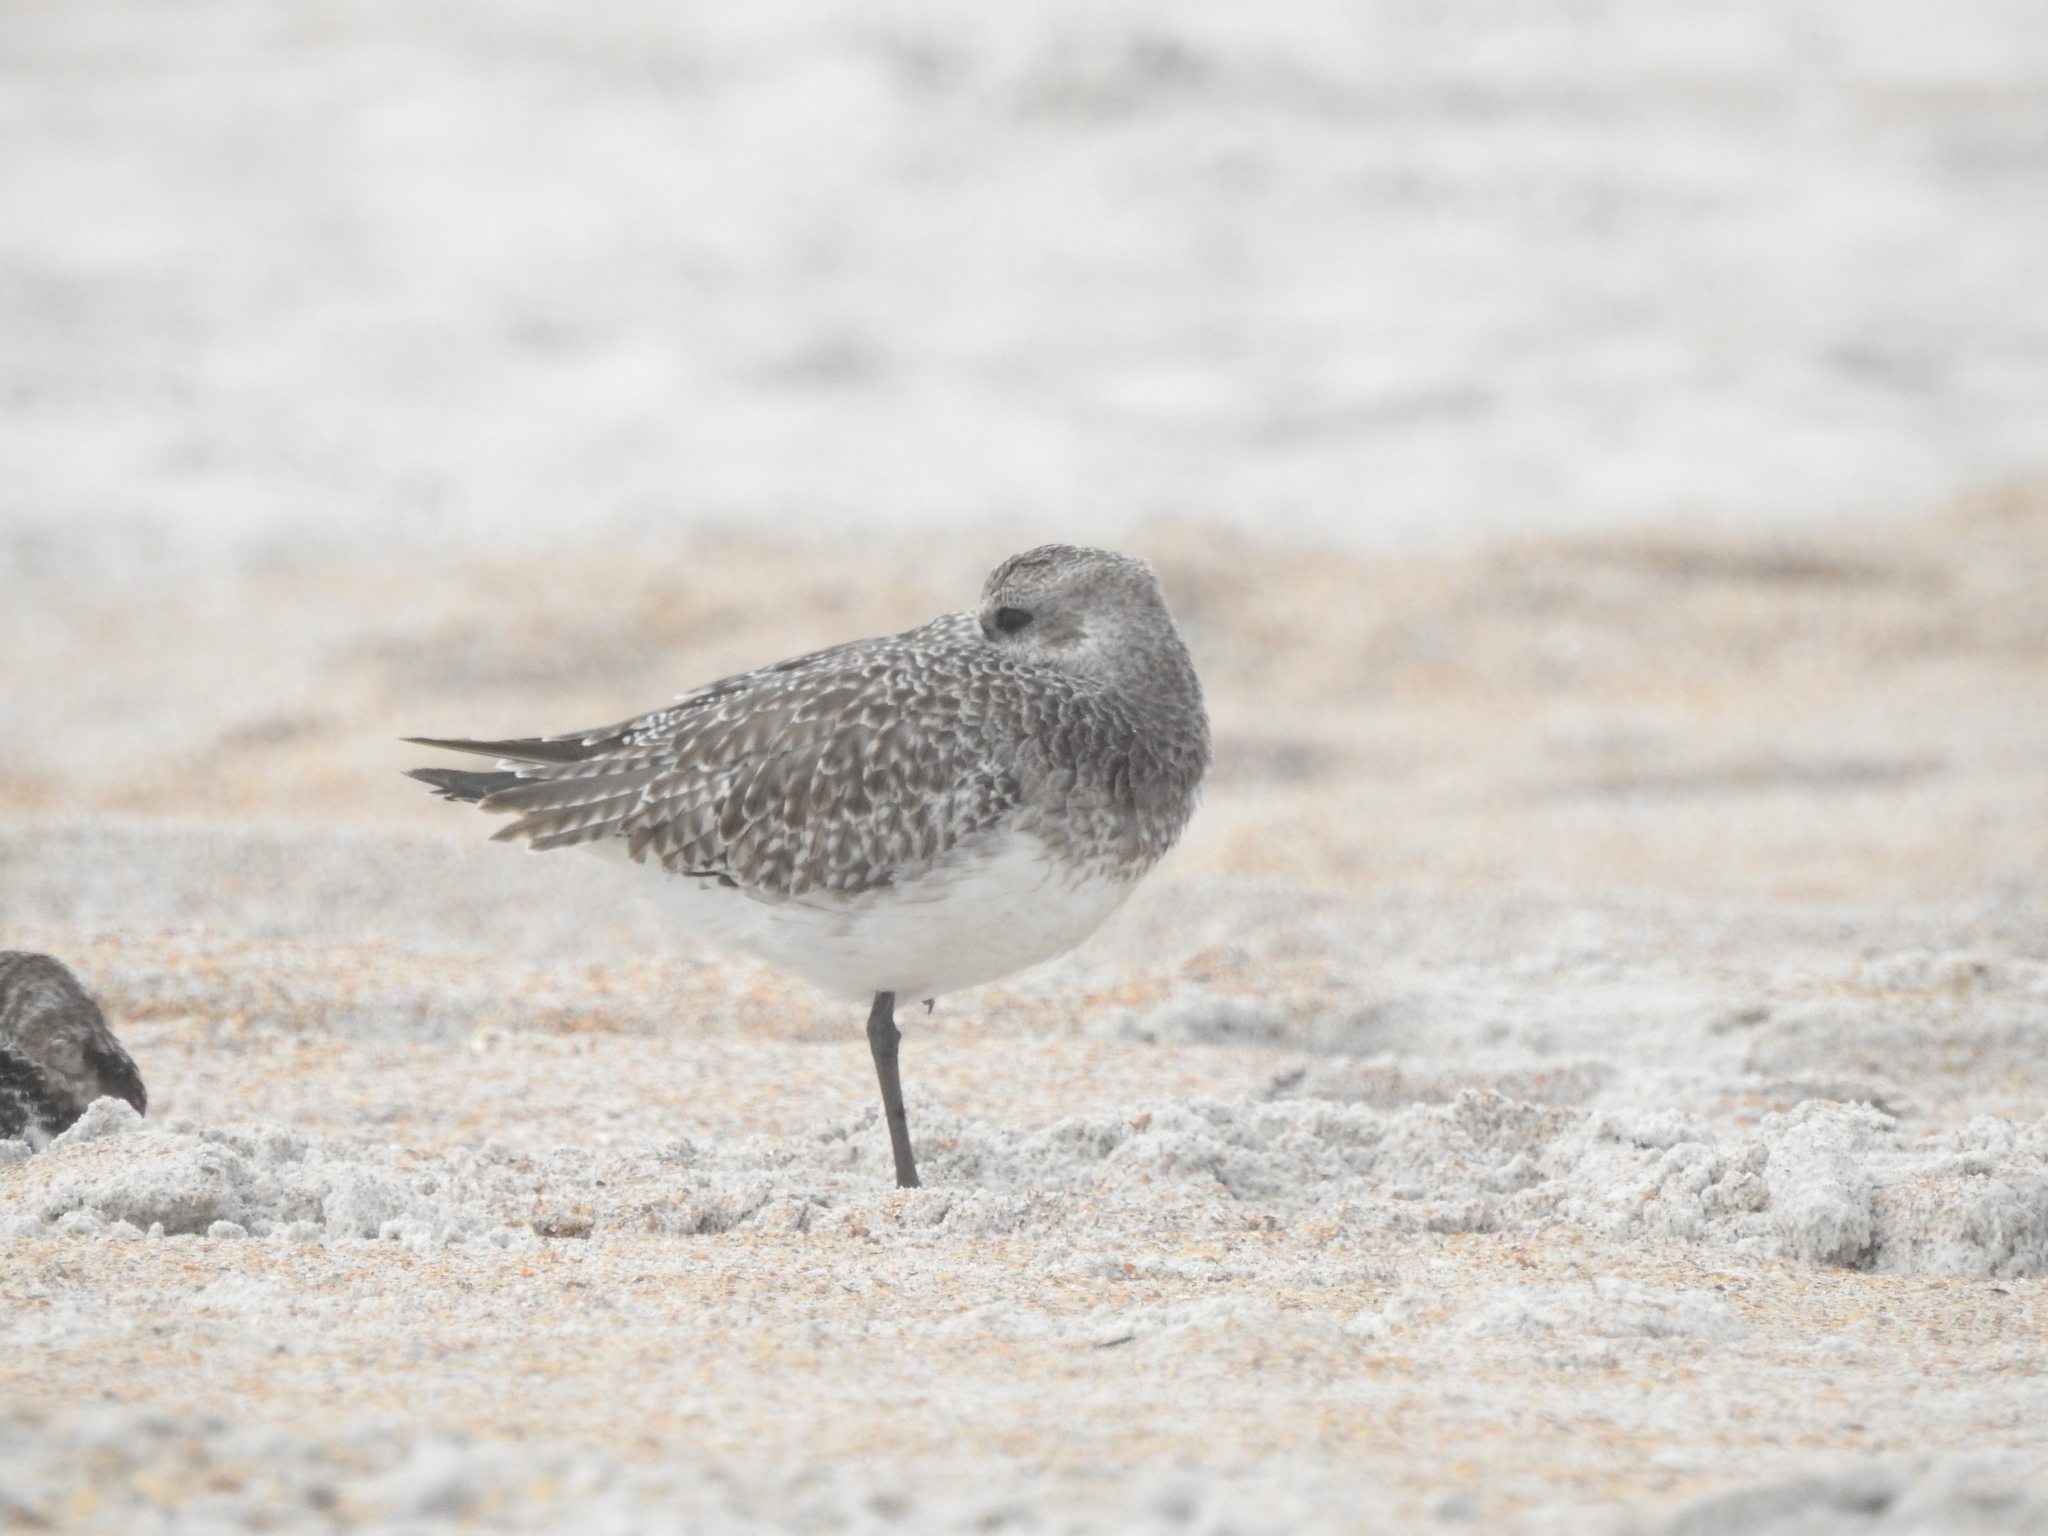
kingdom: Animalia
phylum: Chordata
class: Aves
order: Charadriiformes
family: Charadriidae
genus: Pluvialis
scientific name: Pluvialis squatarola
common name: Grey plover
